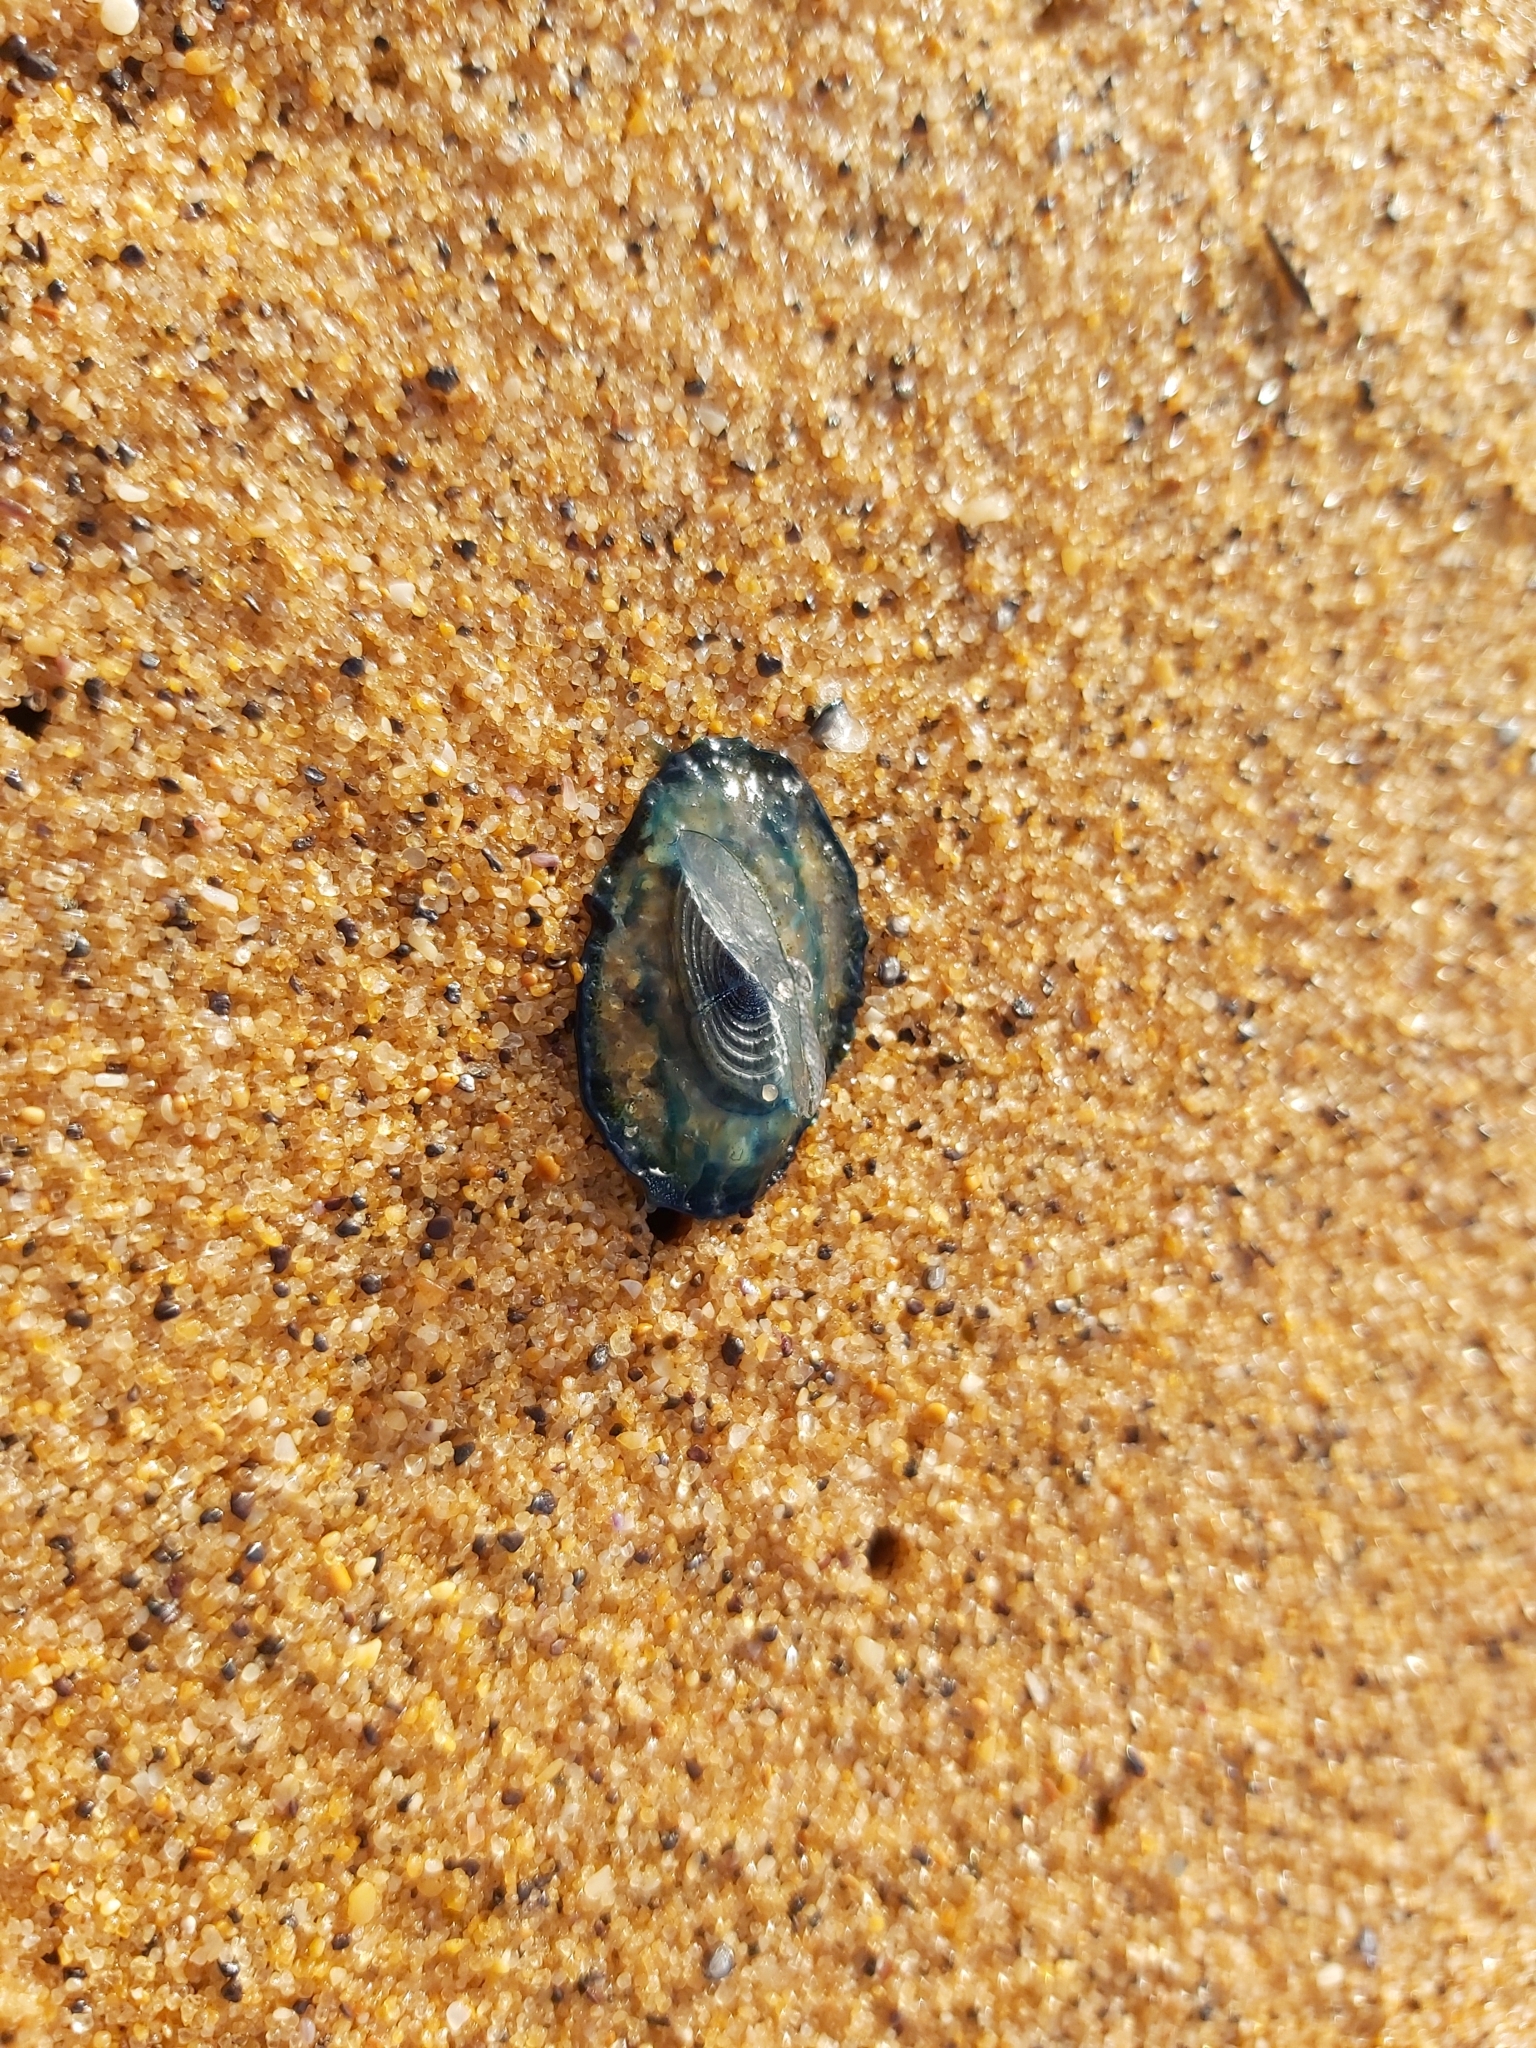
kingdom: Animalia
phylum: Cnidaria
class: Hydrozoa
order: Anthoathecata
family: Porpitidae
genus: Velella
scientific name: Velella velella
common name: By-the-wind-sailor
